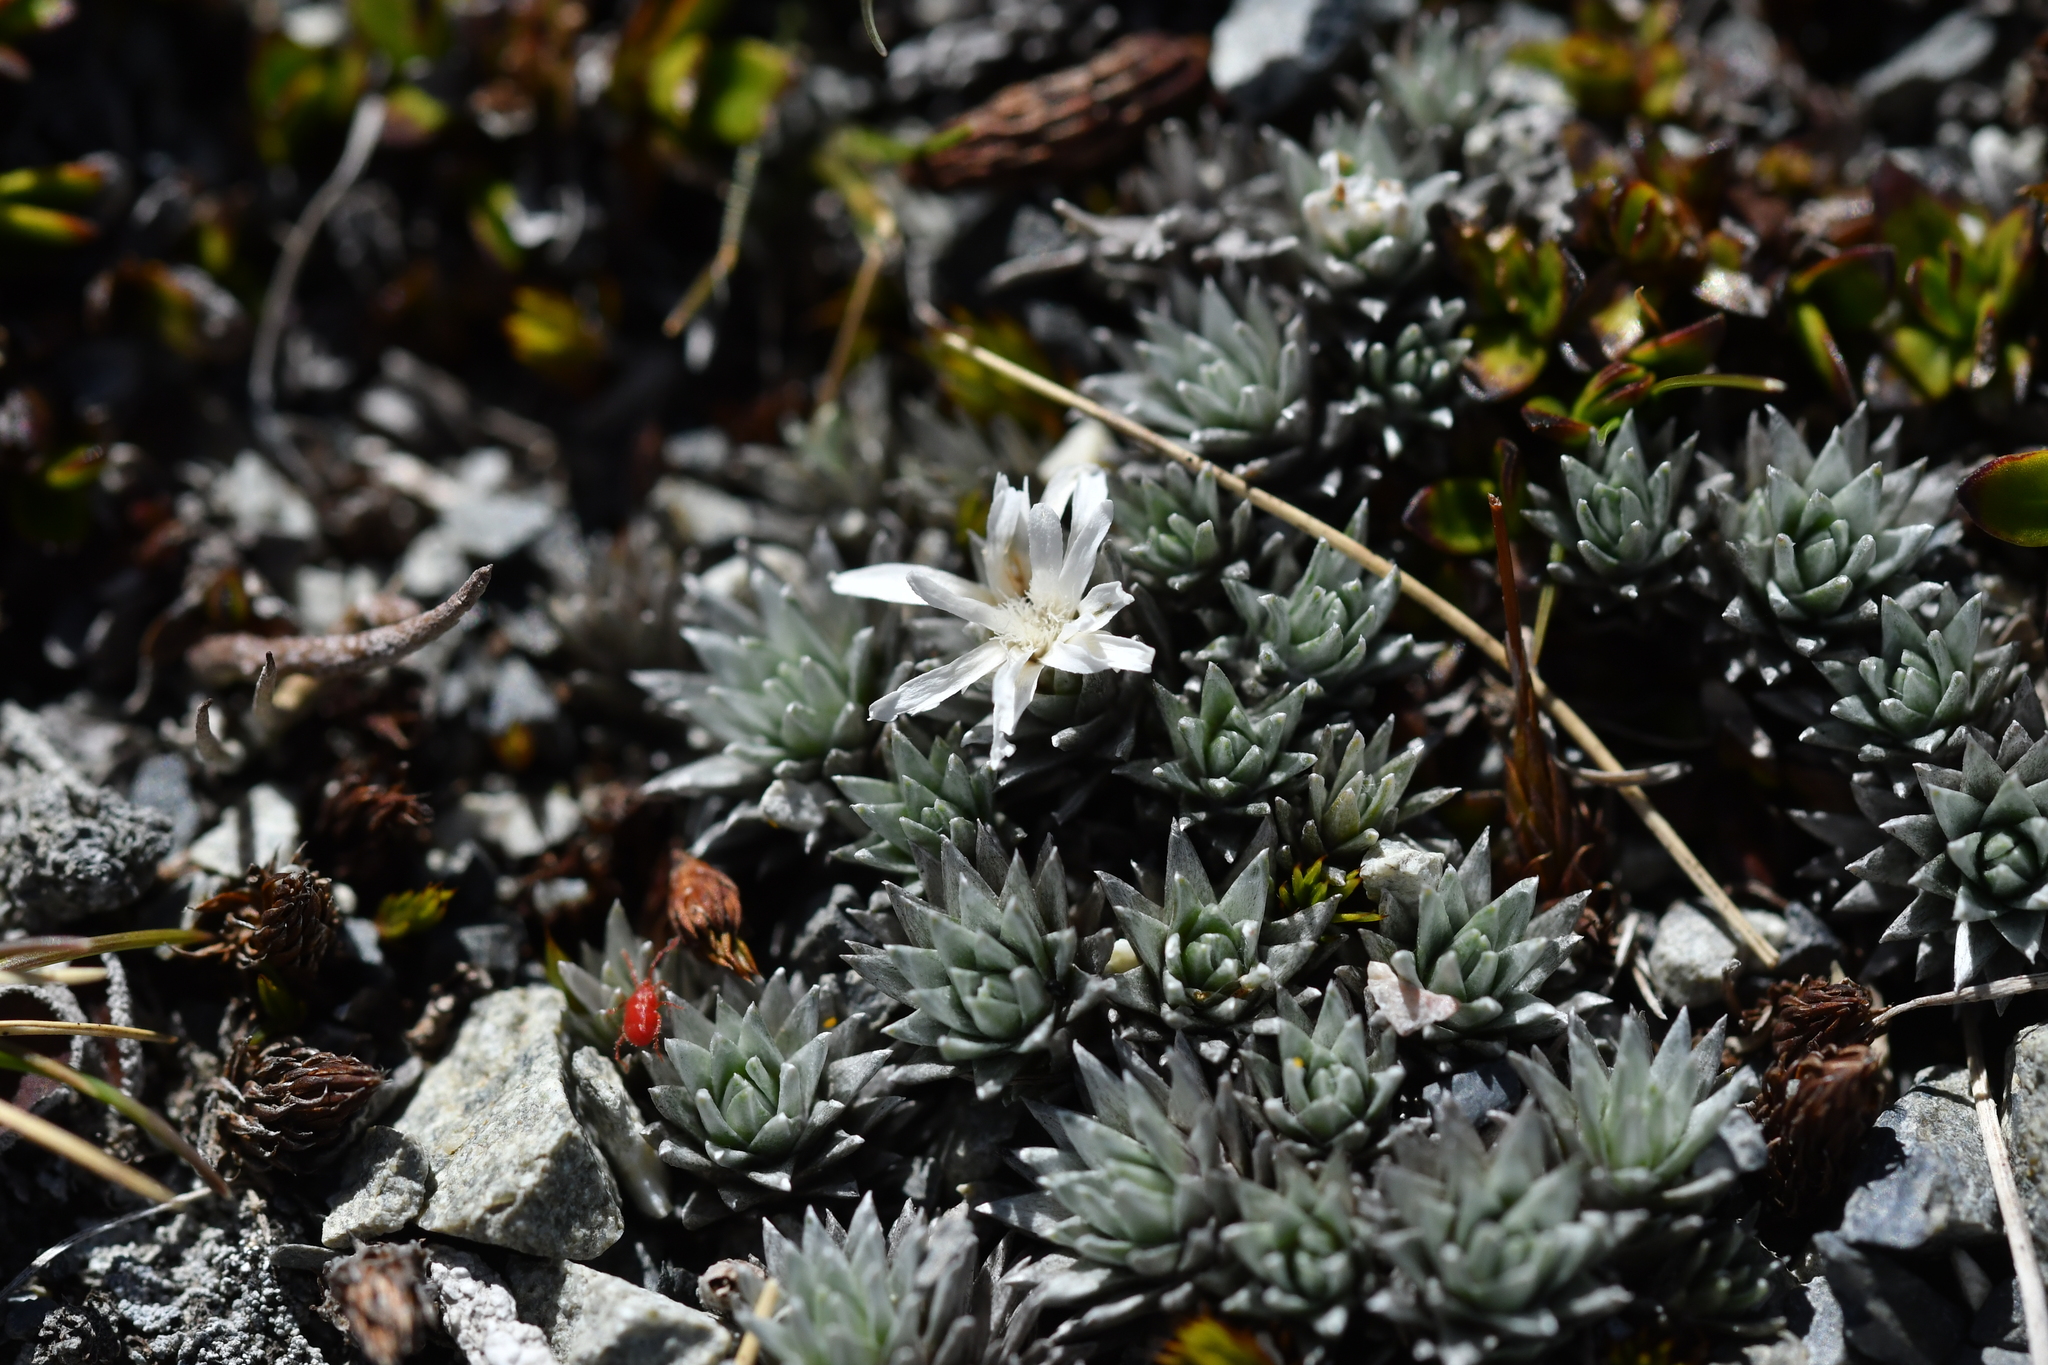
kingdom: Plantae
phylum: Tracheophyta
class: Magnoliopsida
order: Asterales
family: Asteraceae
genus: Raoulia
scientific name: Raoulia grandiflora
